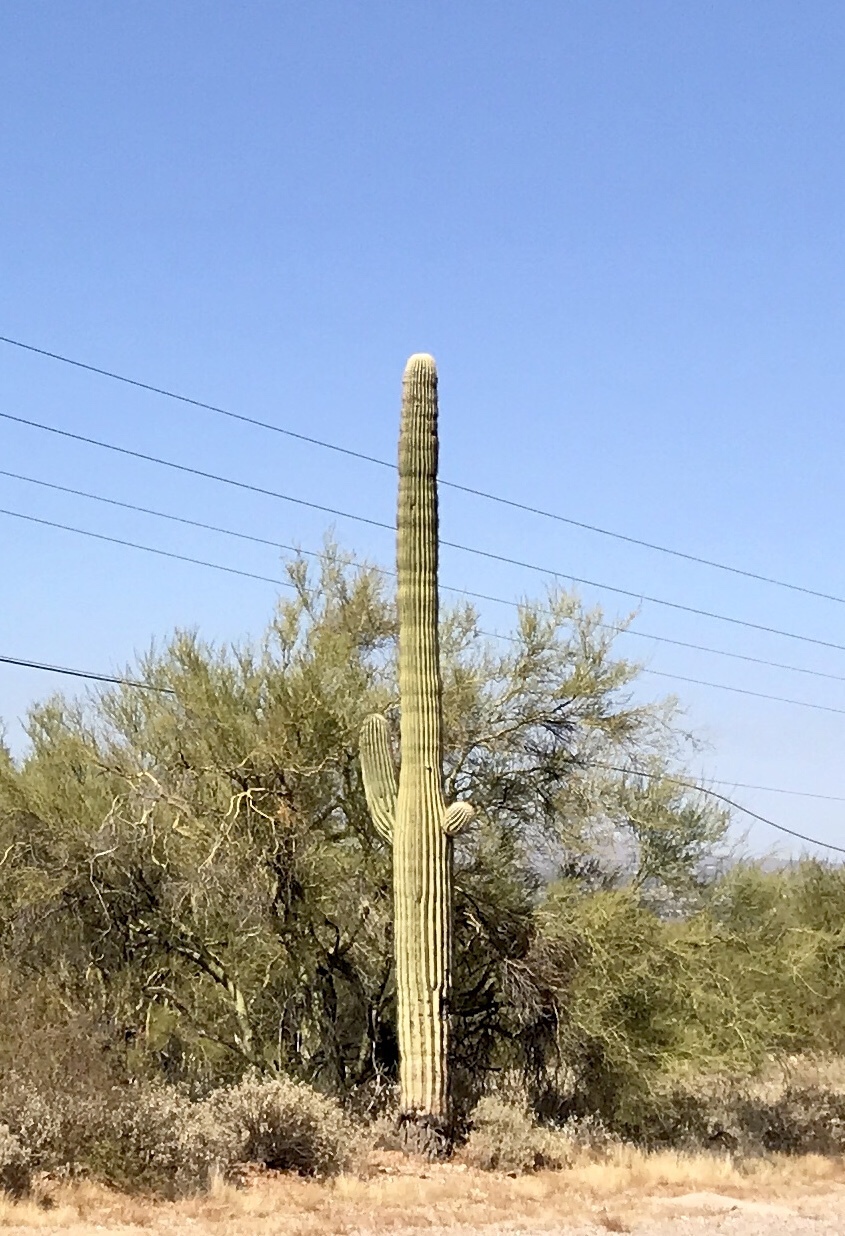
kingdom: Plantae
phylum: Tracheophyta
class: Magnoliopsida
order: Caryophyllales
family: Cactaceae
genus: Carnegiea
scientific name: Carnegiea gigantea
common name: Saguaro
